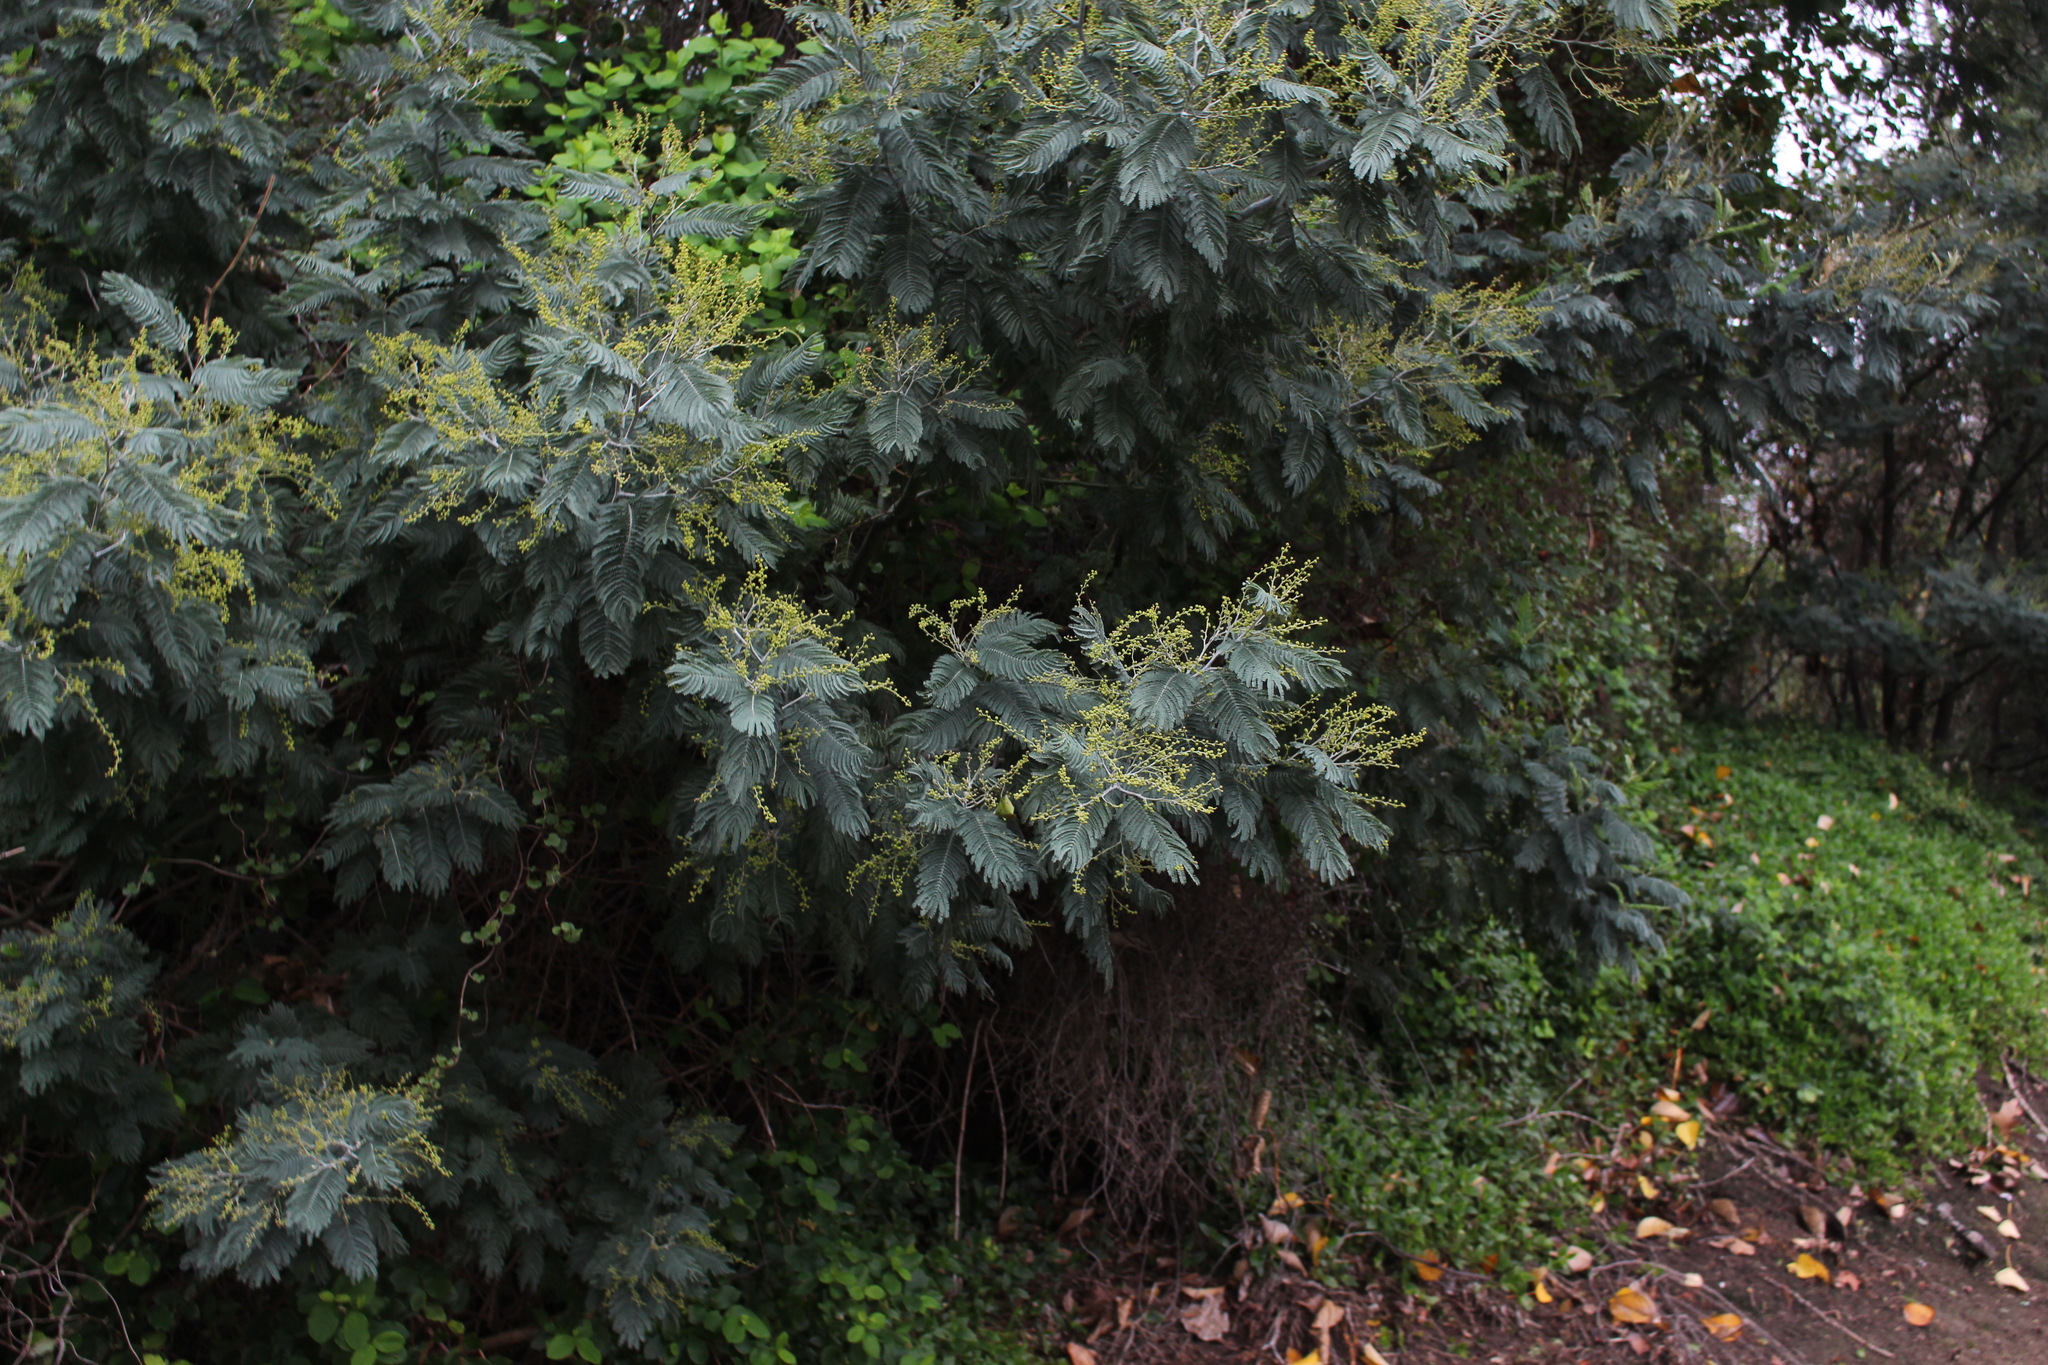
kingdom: Plantae
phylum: Tracheophyta
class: Magnoliopsida
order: Fabales
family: Fabaceae
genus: Acacia
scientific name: Acacia dealbata
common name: Silver wattle
